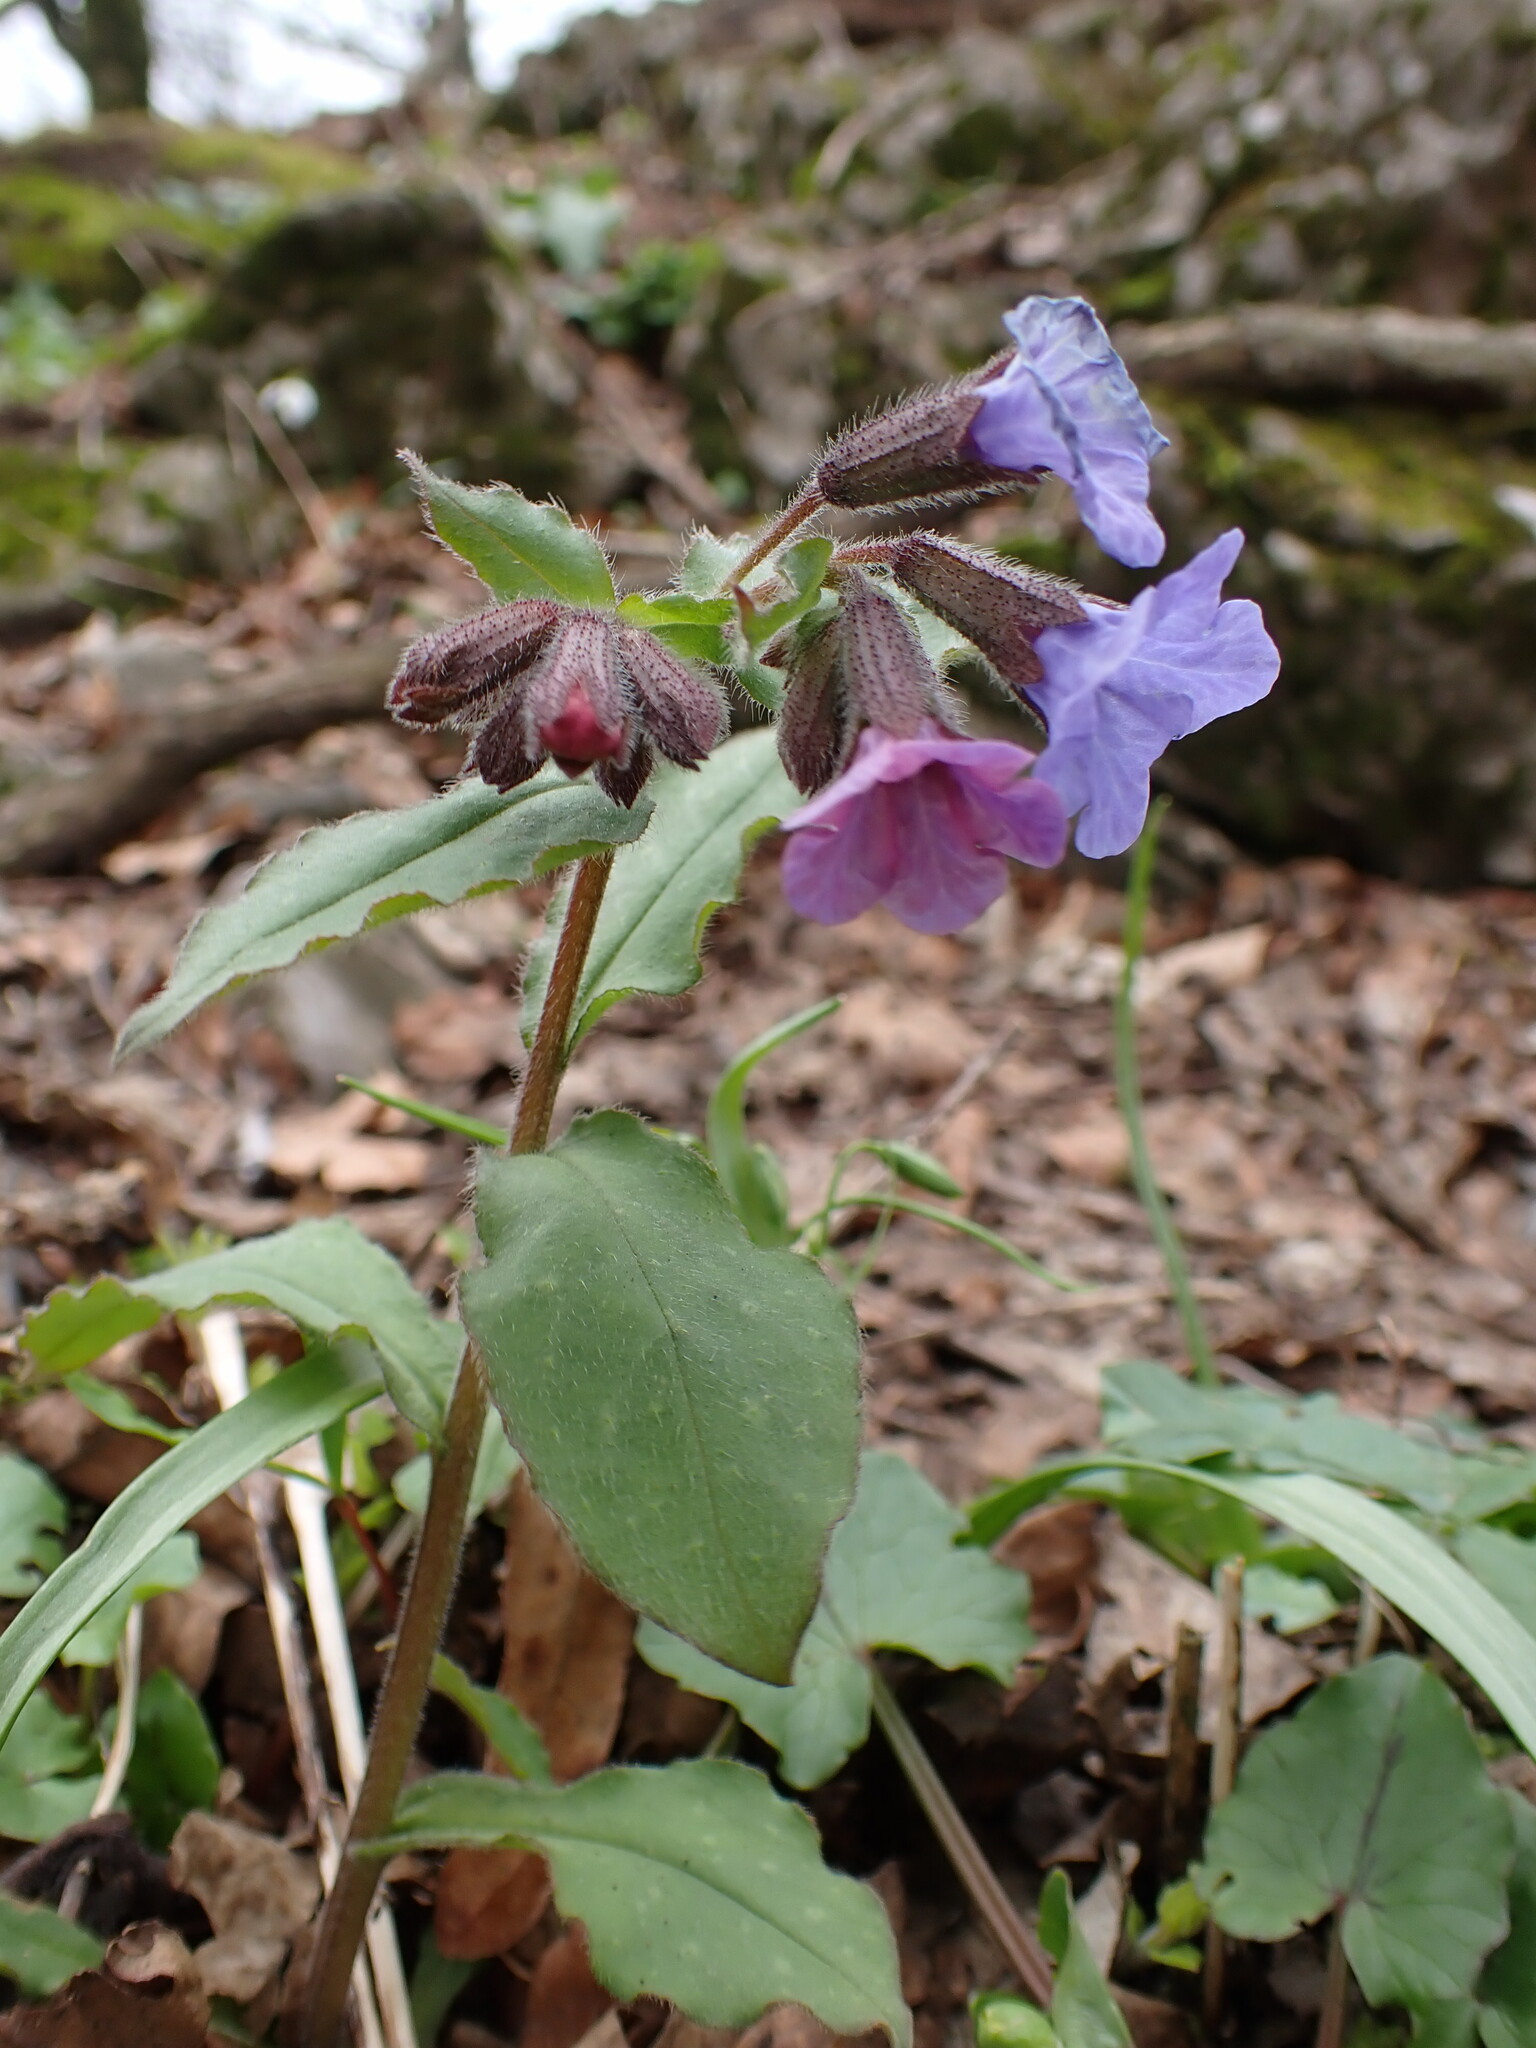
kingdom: Plantae
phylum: Tracheophyta
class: Magnoliopsida
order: Boraginales
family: Boraginaceae
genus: Pulmonaria
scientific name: Pulmonaria obscura
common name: Suffolk lungwort
